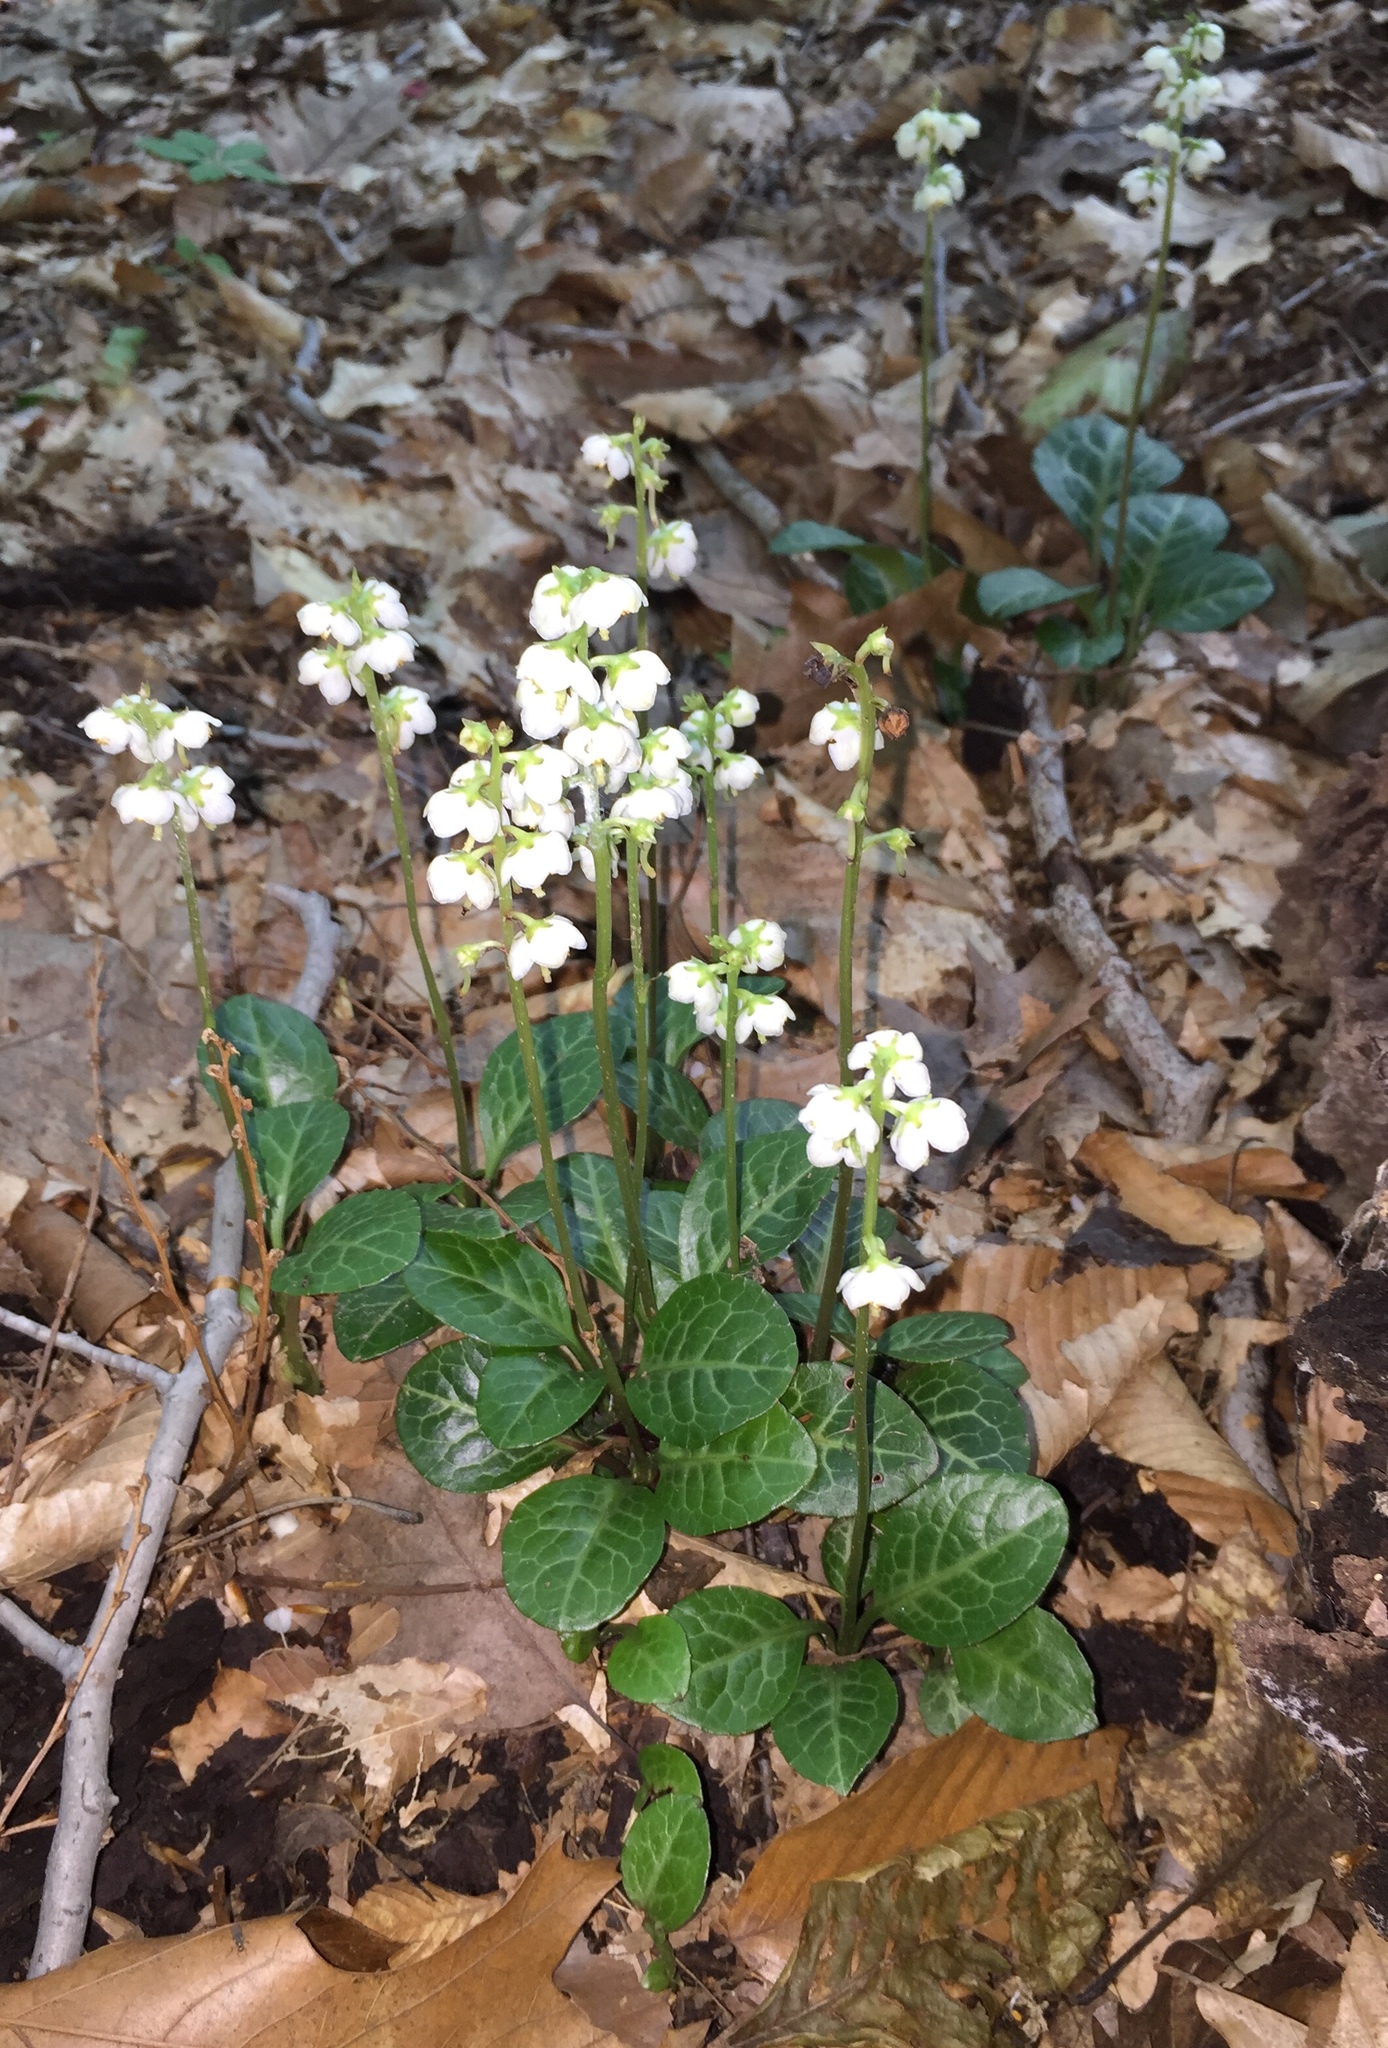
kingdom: Plantae
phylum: Tracheophyta
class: Magnoliopsida
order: Ericales
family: Ericaceae
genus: Pyrola
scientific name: Pyrola americana
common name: American wintergreen
